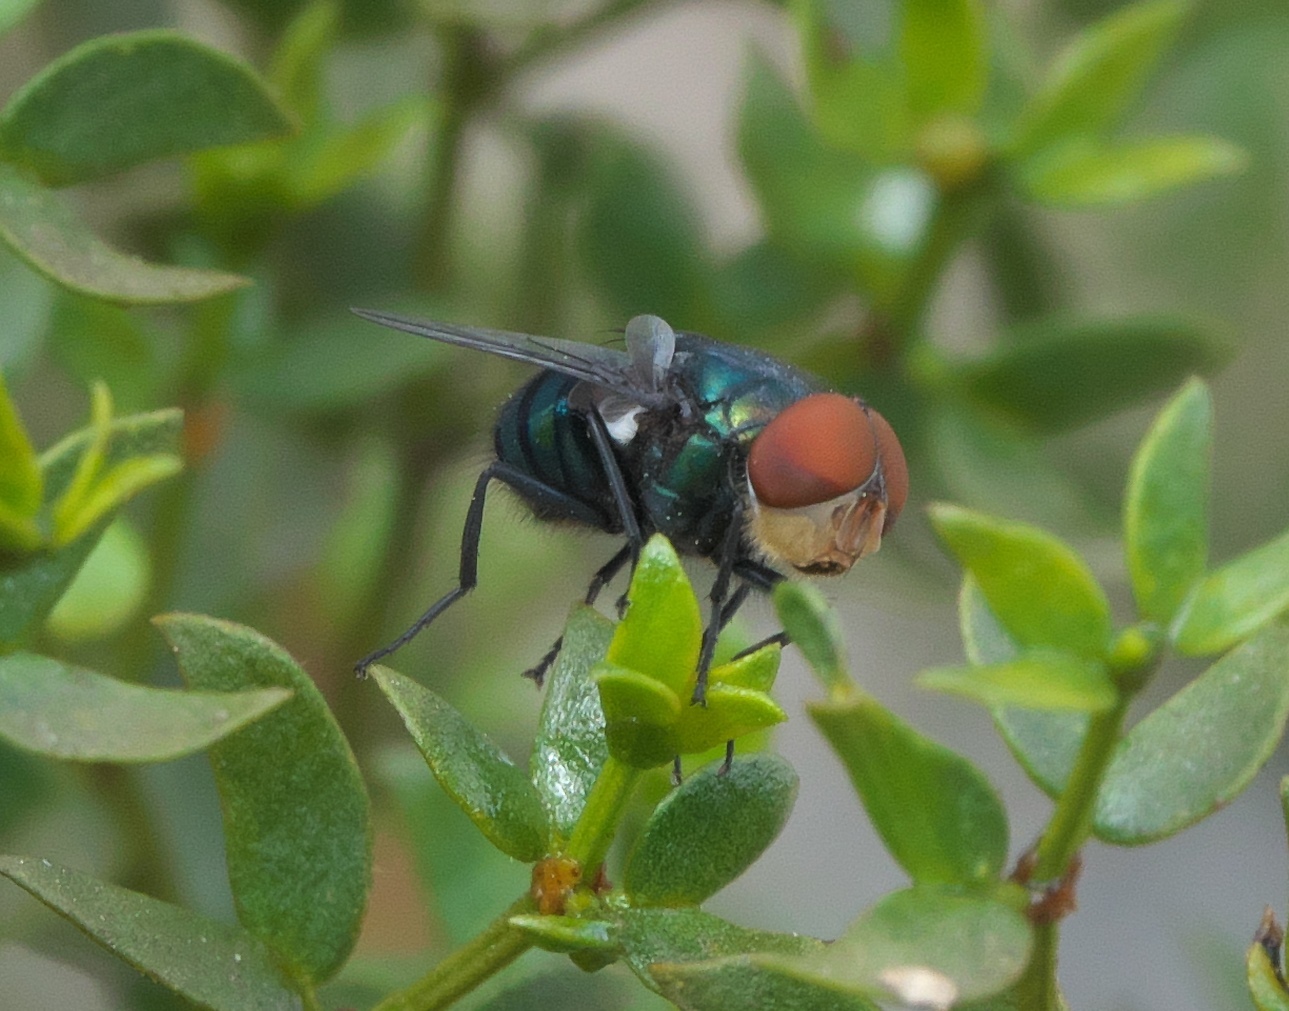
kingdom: Animalia
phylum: Arthropoda
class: Insecta
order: Diptera
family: Calliphoridae
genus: Chrysomya
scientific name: Chrysomya megacephala
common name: Blow fly
